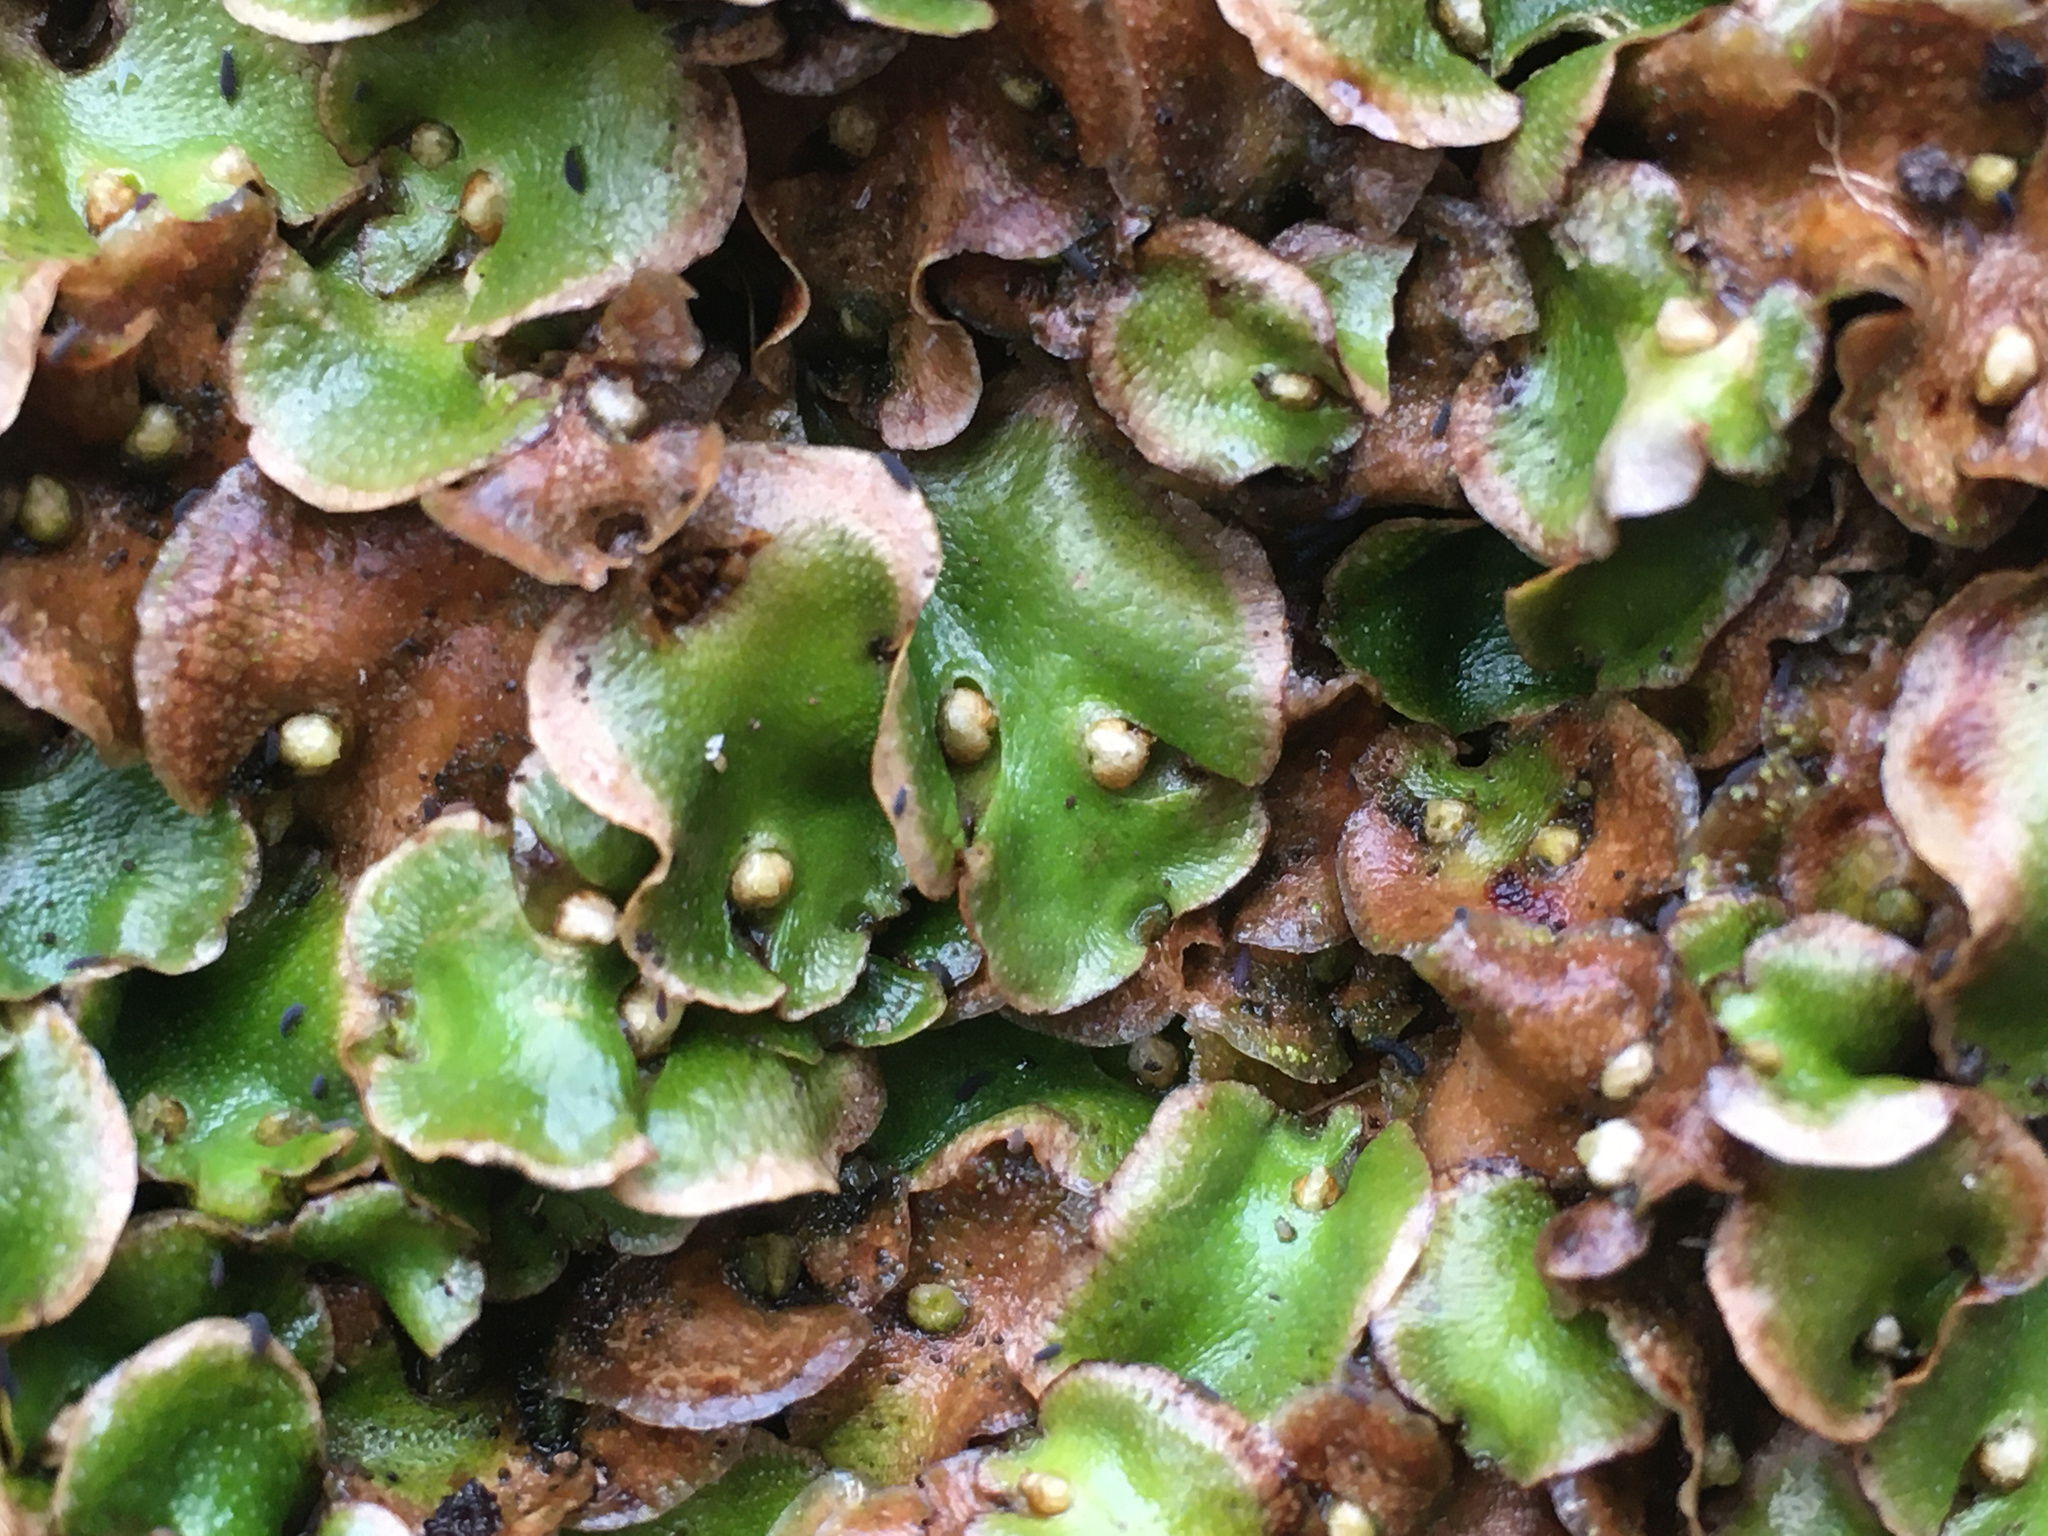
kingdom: Plantae
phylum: Marchantiophyta
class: Marchantiopsida
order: Lunulariales
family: Lunulariaceae
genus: Lunularia
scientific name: Lunularia cruciata
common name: Crescent-cup liverwort
